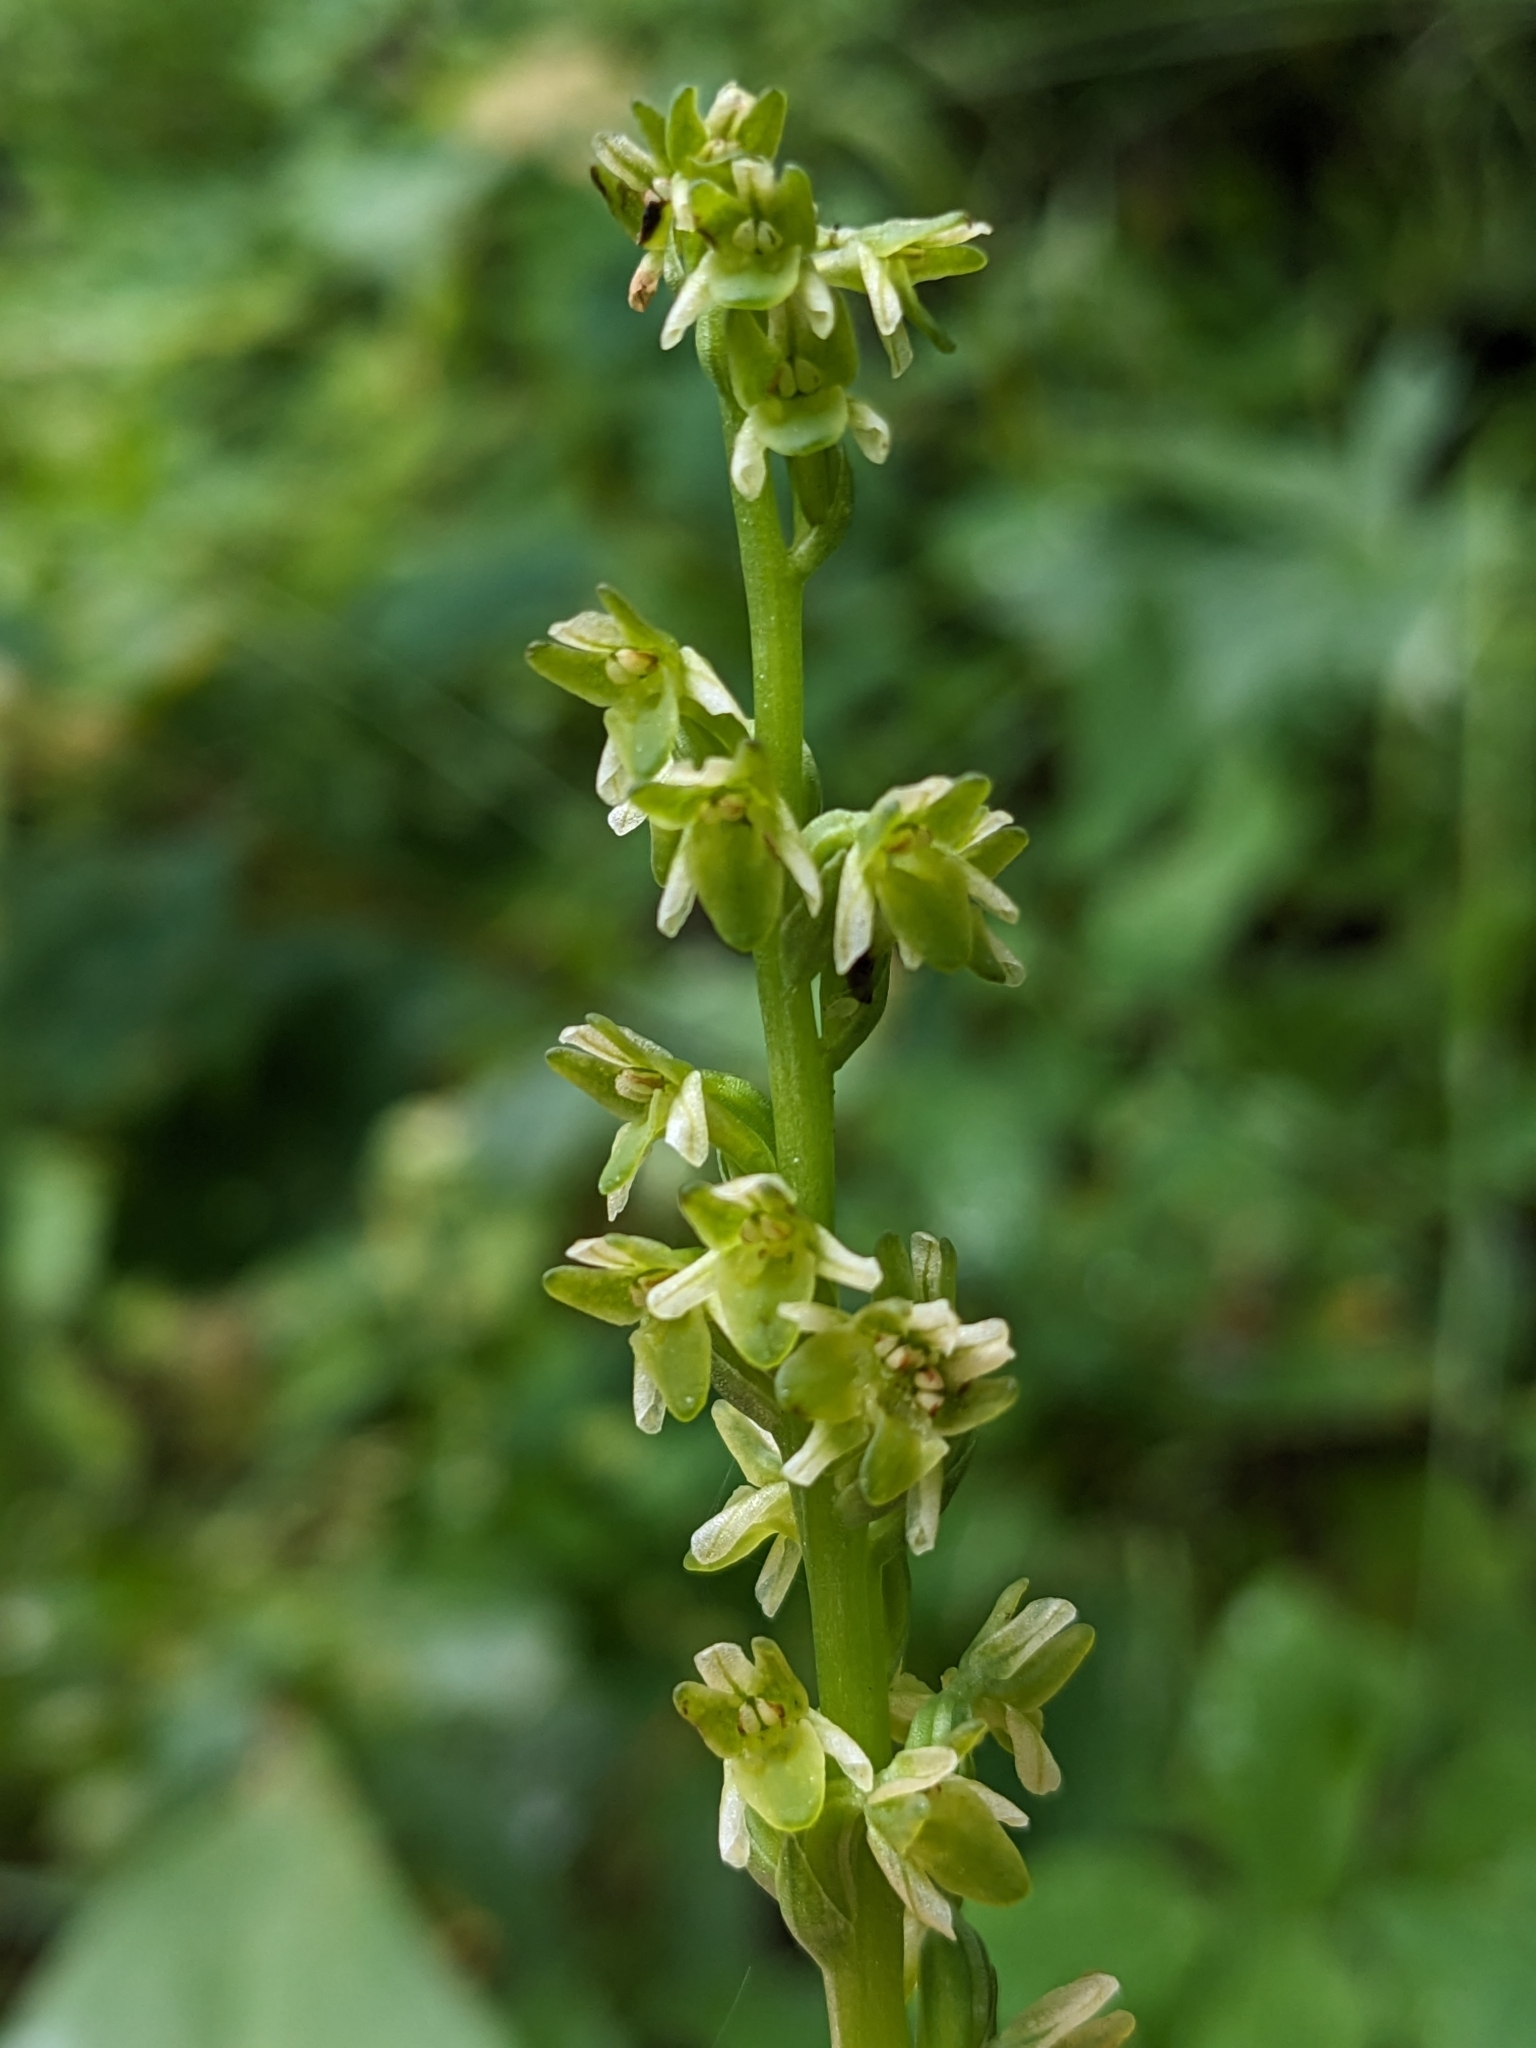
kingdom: Plantae
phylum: Tracheophyta
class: Liliopsida
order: Asparagales
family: Orchidaceae
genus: Platanthera
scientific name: Platanthera unalascensis
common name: Alaska bog orchid
